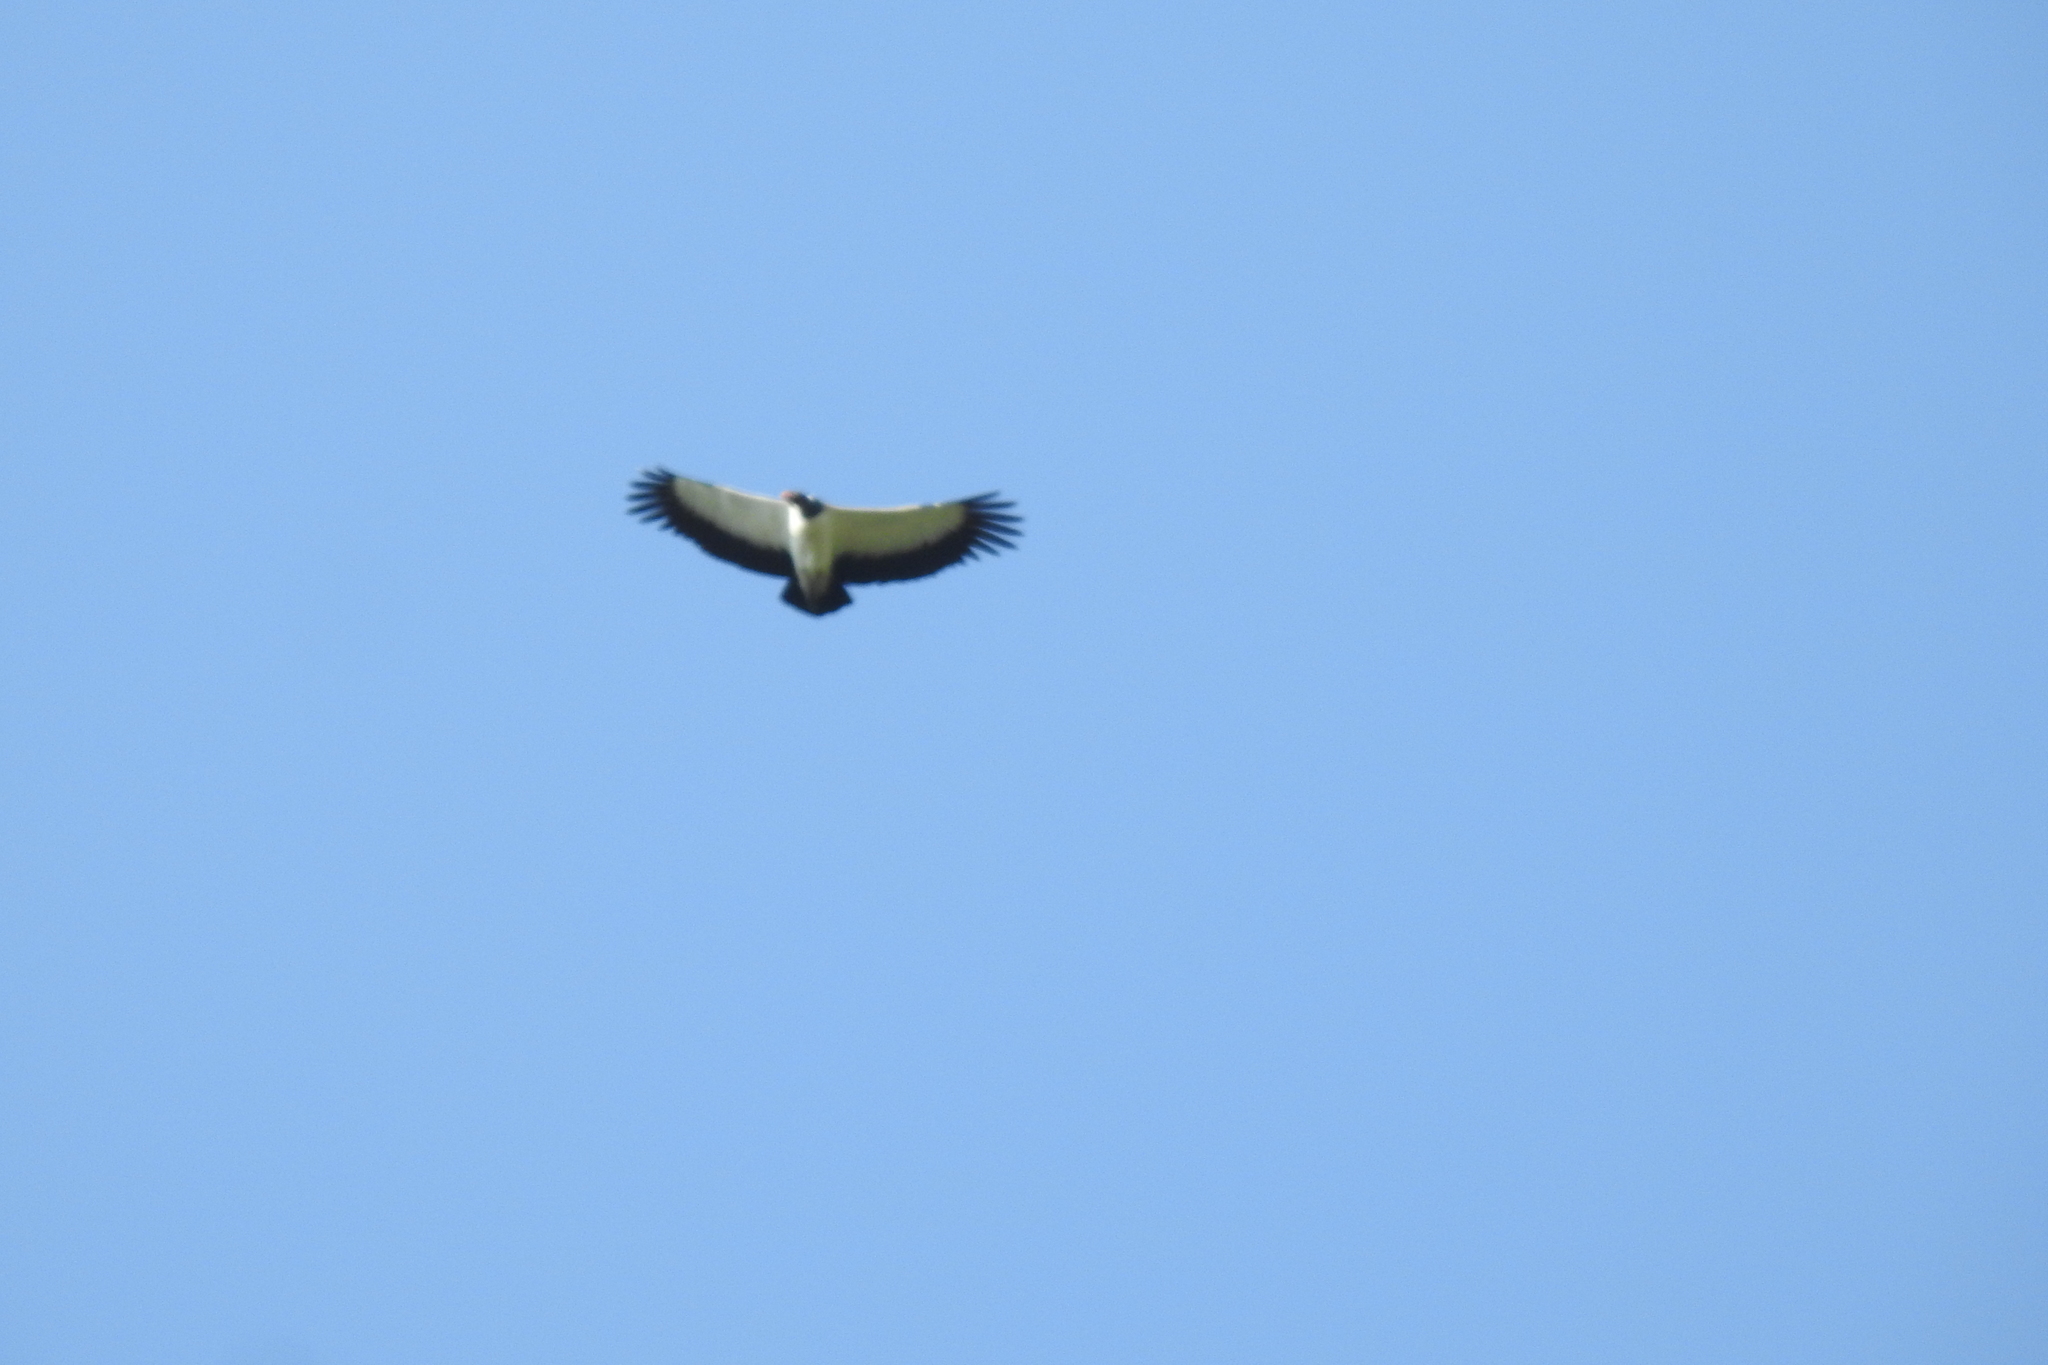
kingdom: Animalia
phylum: Chordata
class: Aves
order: Accipitriformes
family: Cathartidae
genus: Sarcoramphus
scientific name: Sarcoramphus papa
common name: King vulture
